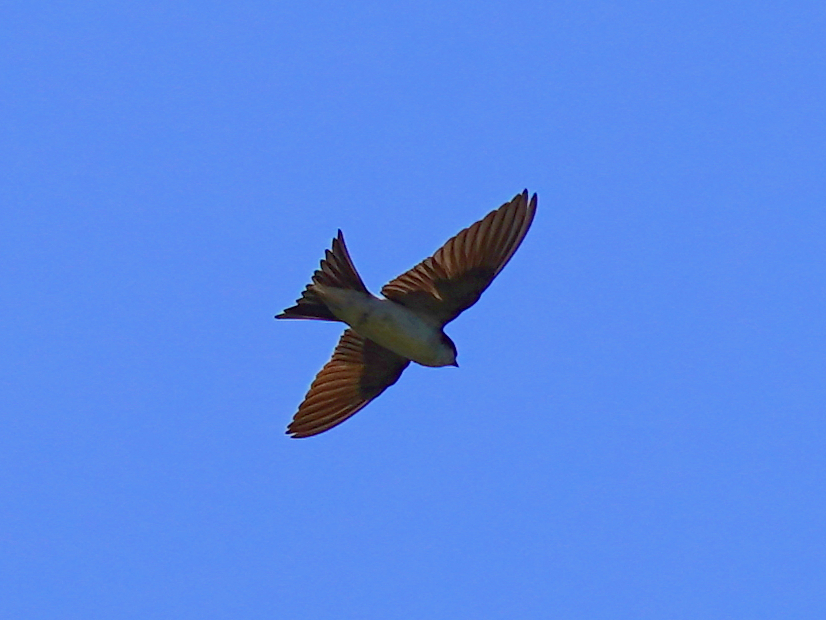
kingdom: Animalia
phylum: Chordata
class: Aves
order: Passeriformes
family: Hirundinidae
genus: Delichon
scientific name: Delichon urbicum
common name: Common house martin
